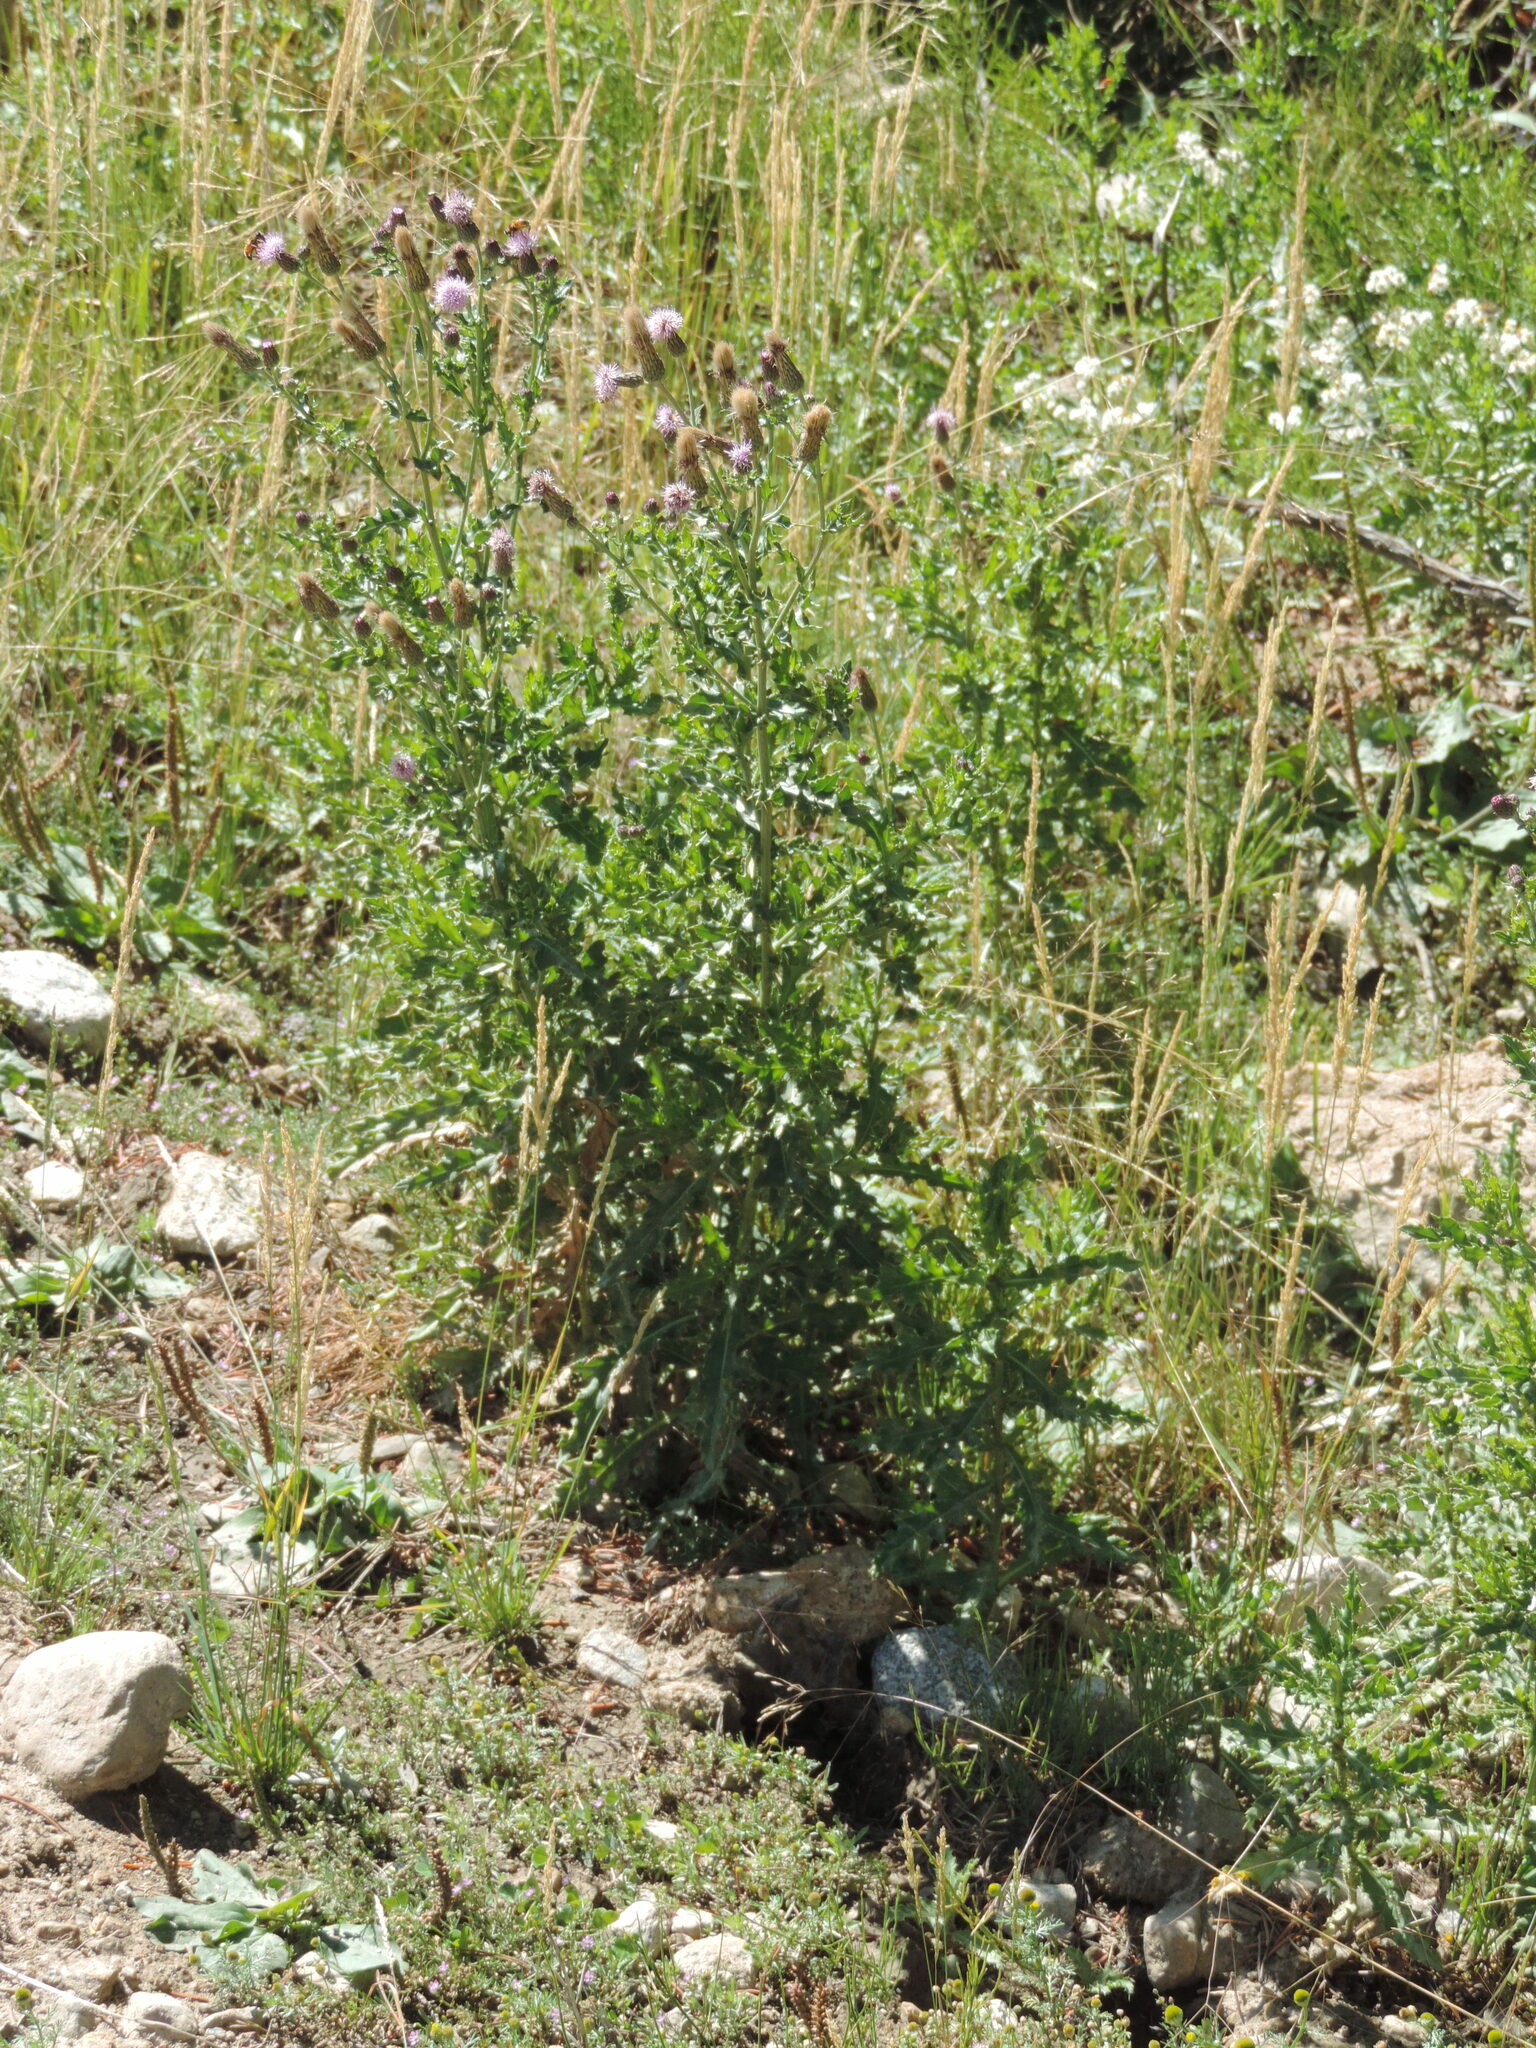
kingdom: Plantae
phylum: Tracheophyta
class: Magnoliopsida
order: Asterales
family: Asteraceae
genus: Cirsium
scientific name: Cirsium arvense
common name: Creeping thistle
